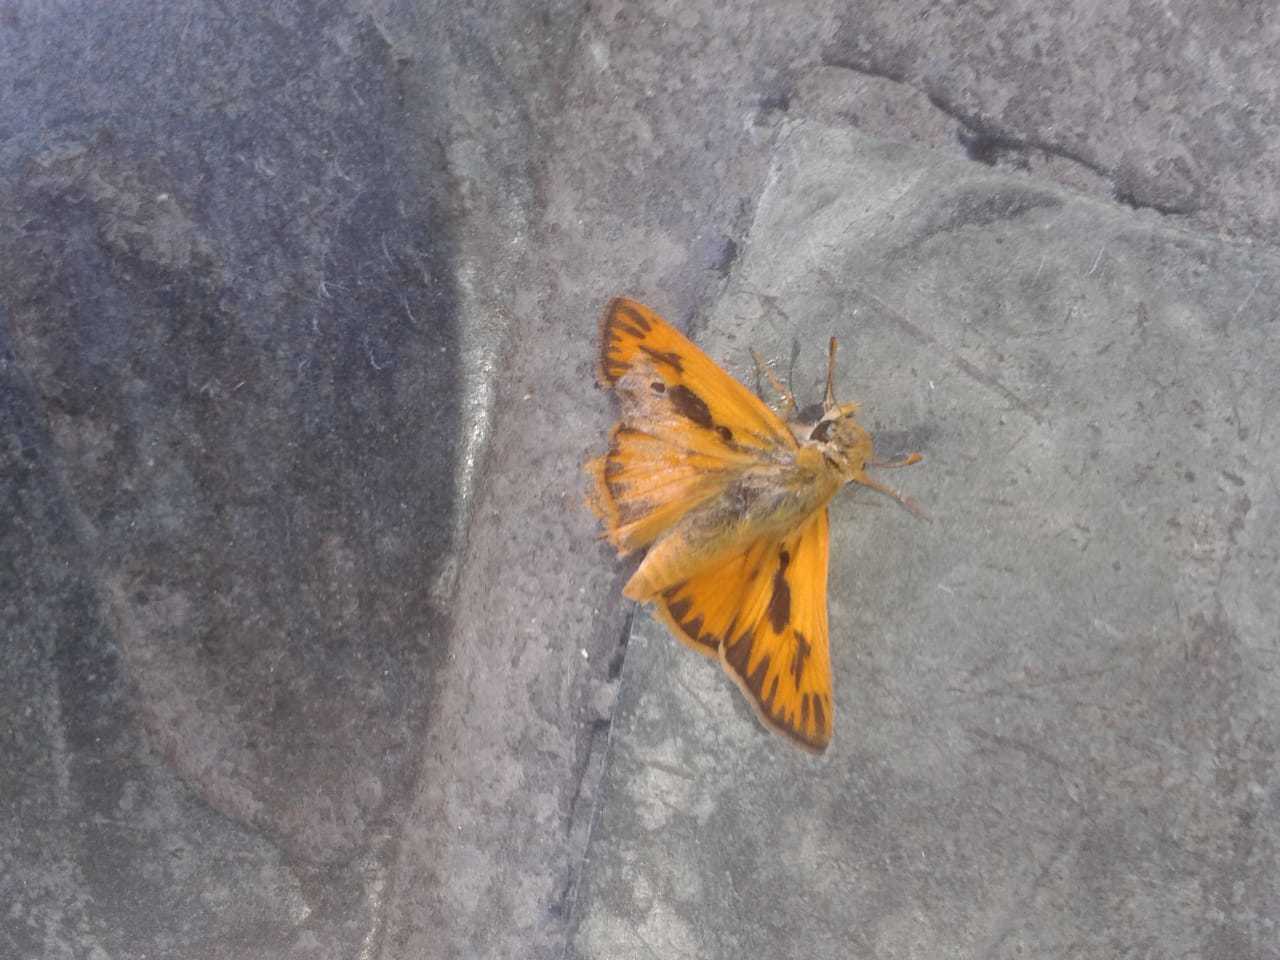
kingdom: Animalia
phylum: Arthropoda
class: Insecta
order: Lepidoptera
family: Hesperiidae
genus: Hylephila
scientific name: Hylephila phyleus
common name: Fiery skipper
